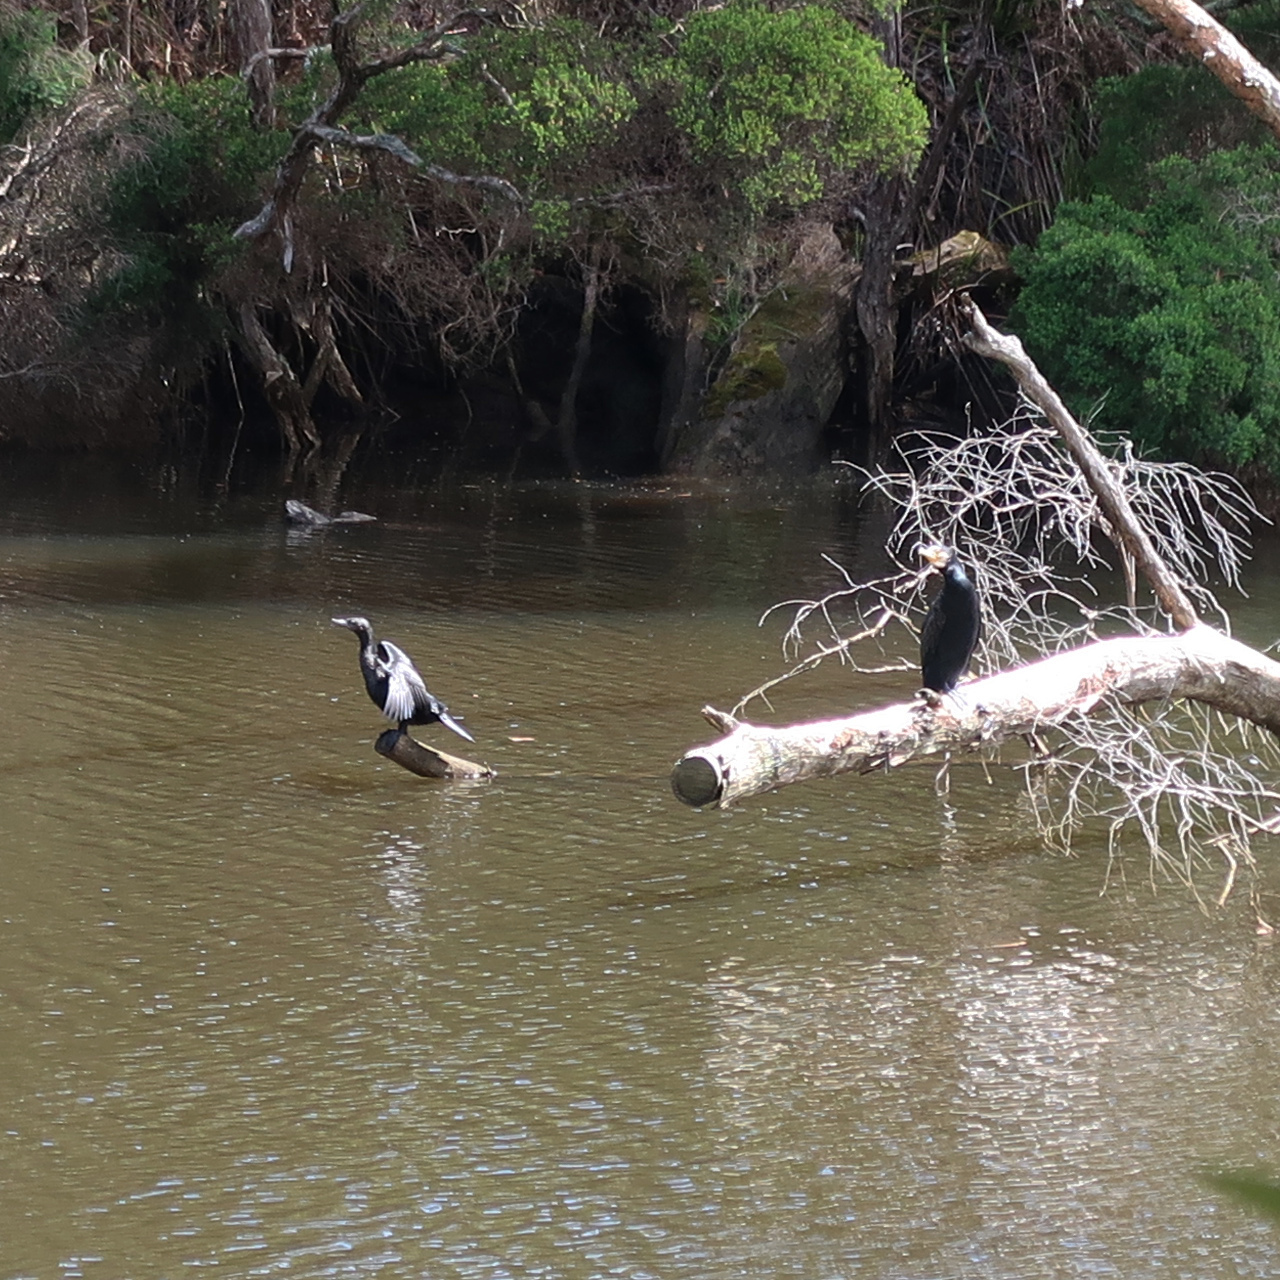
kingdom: Animalia
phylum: Chordata
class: Aves
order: Suliformes
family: Phalacrocoracidae
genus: Phalacrocorax
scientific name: Phalacrocorax carbo
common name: Great cormorant
